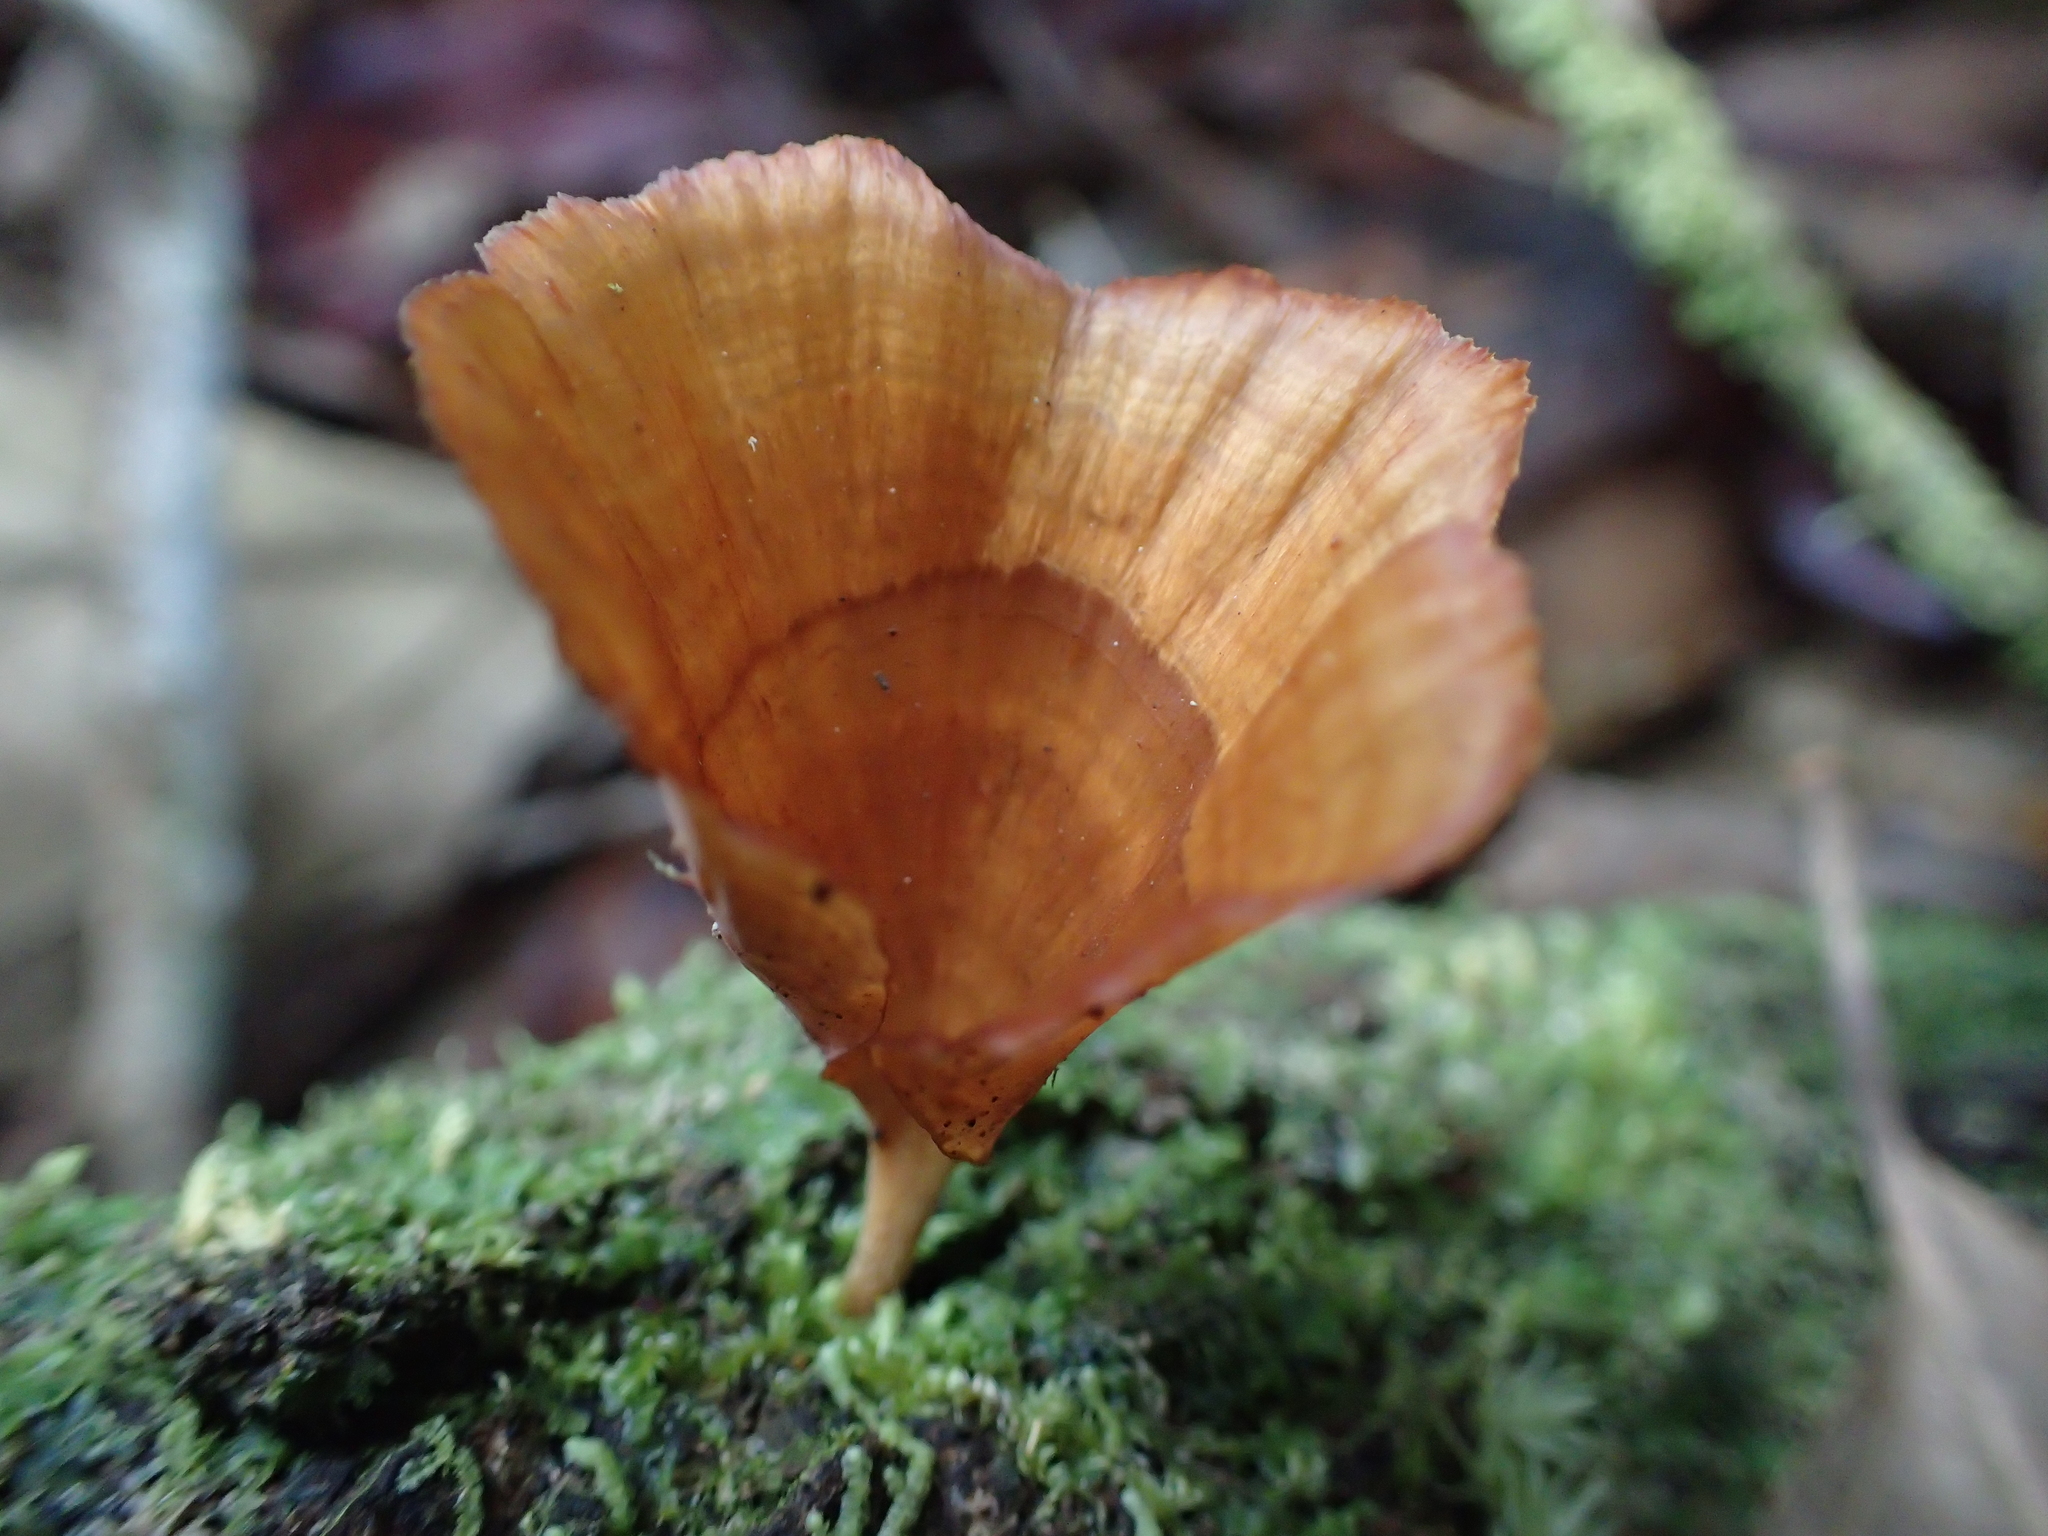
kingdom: Fungi
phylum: Basidiomycota
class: Agaricomycetes
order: Polyporales
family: Podoscyphaceae
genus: Podoscypha
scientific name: Podoscypha petalodes
